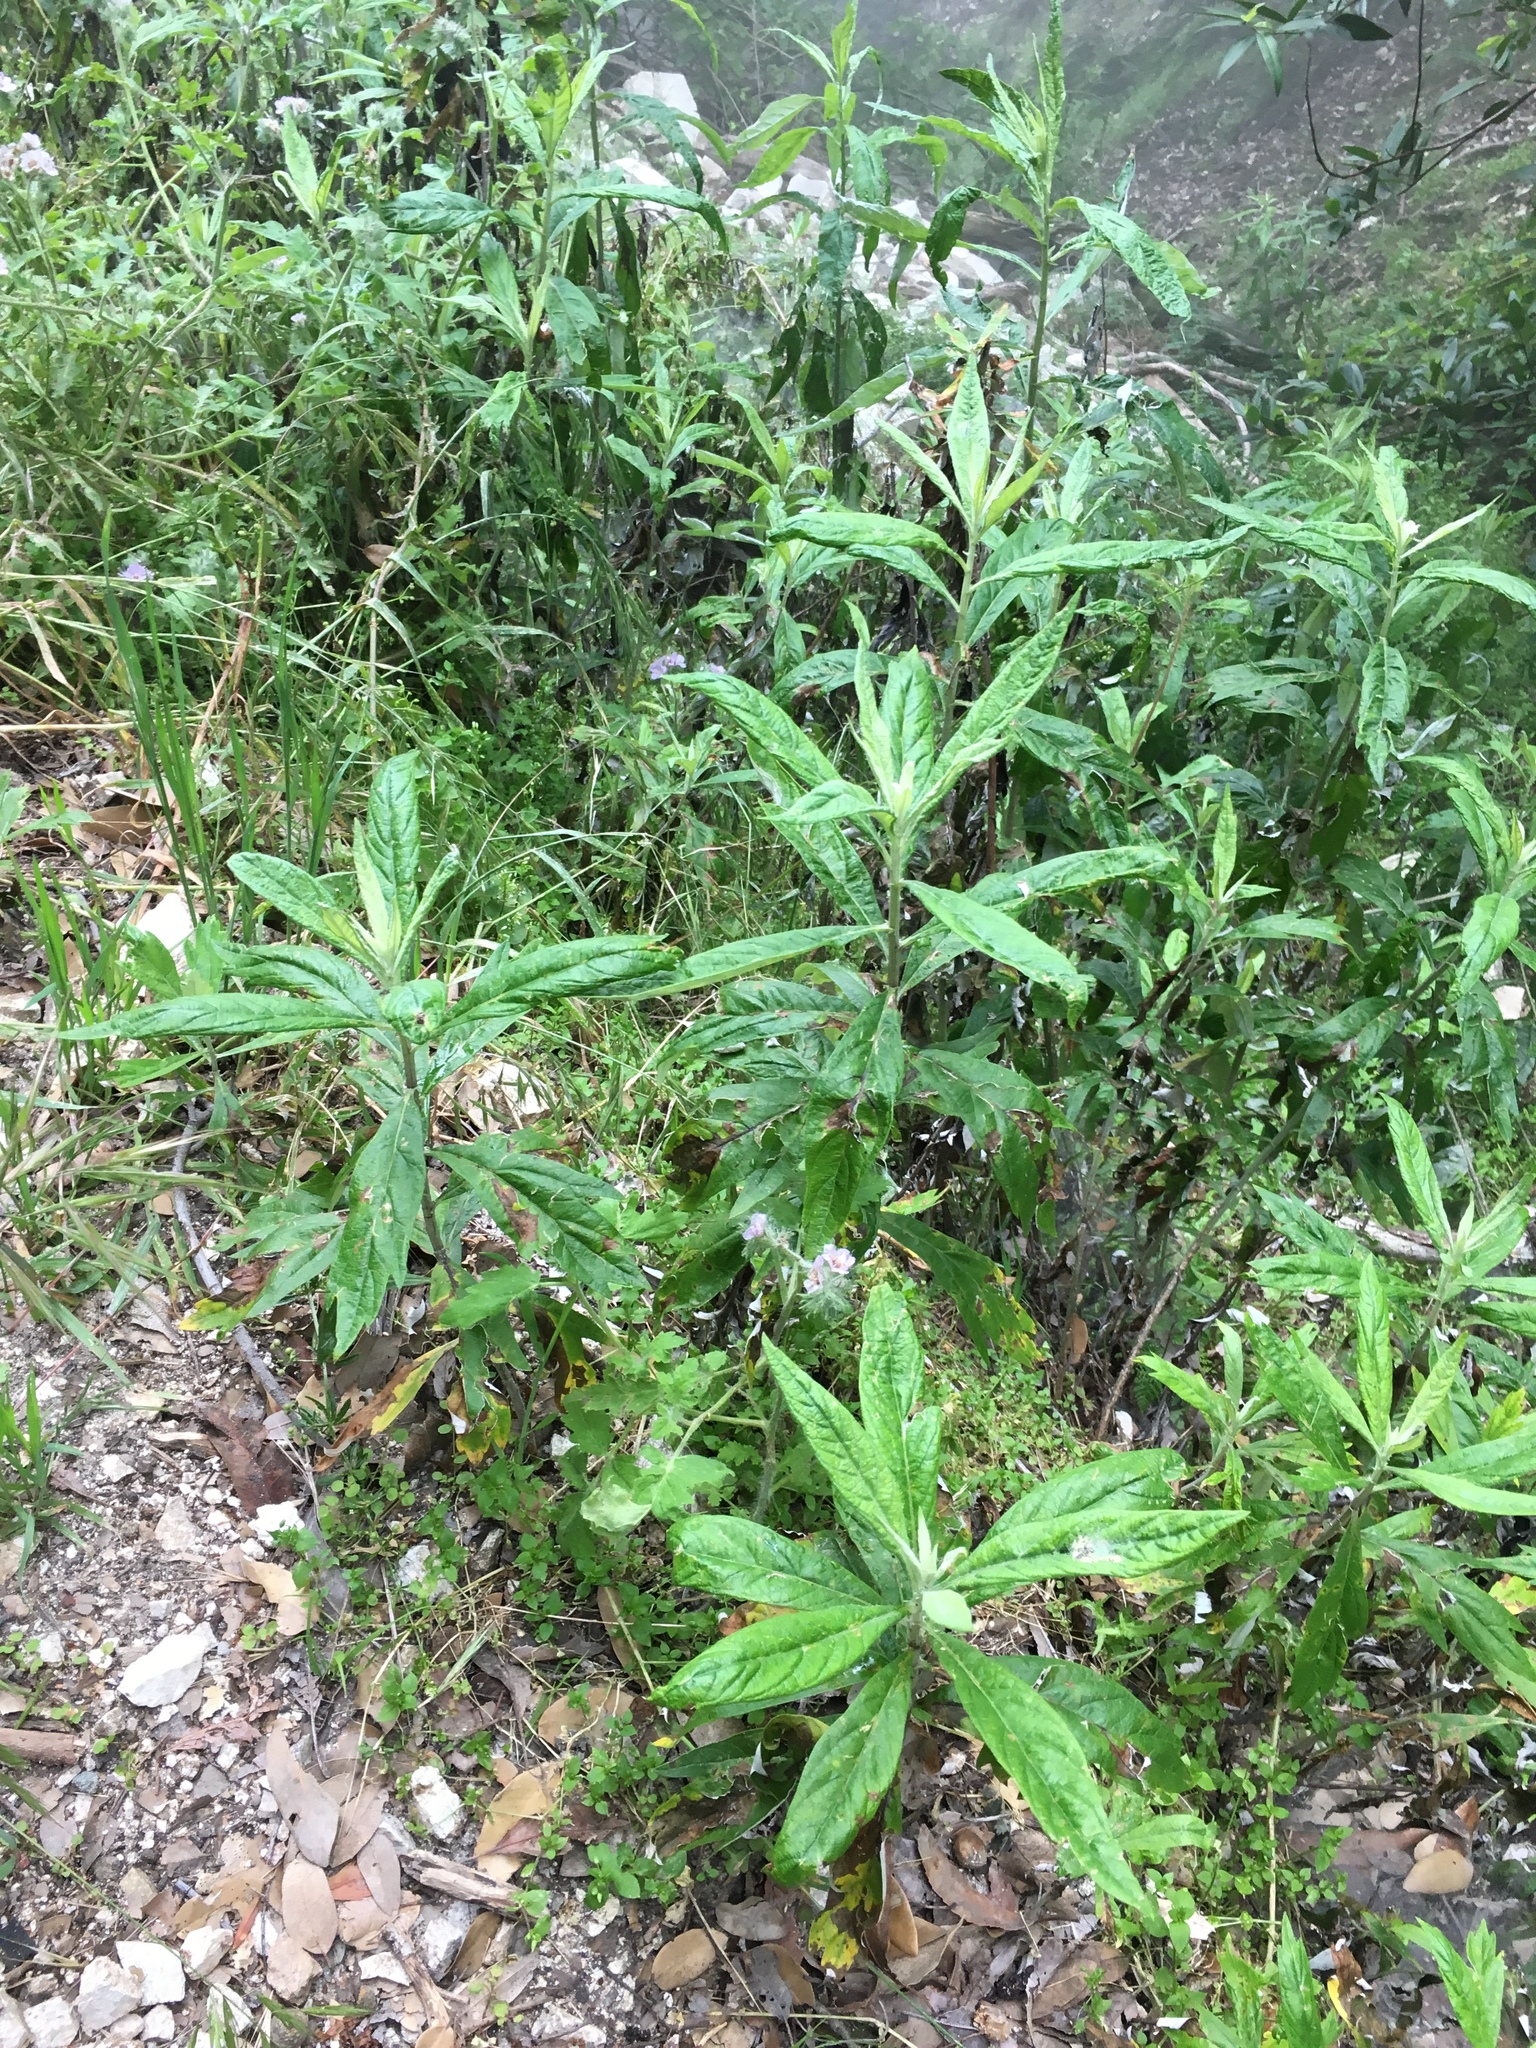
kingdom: Plantae
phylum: Tracheophyta
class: Magnoliopsida
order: Asterales
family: Asteraceae
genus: Artemisia
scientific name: Artemisia douglasiana
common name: Northwest mugwort
